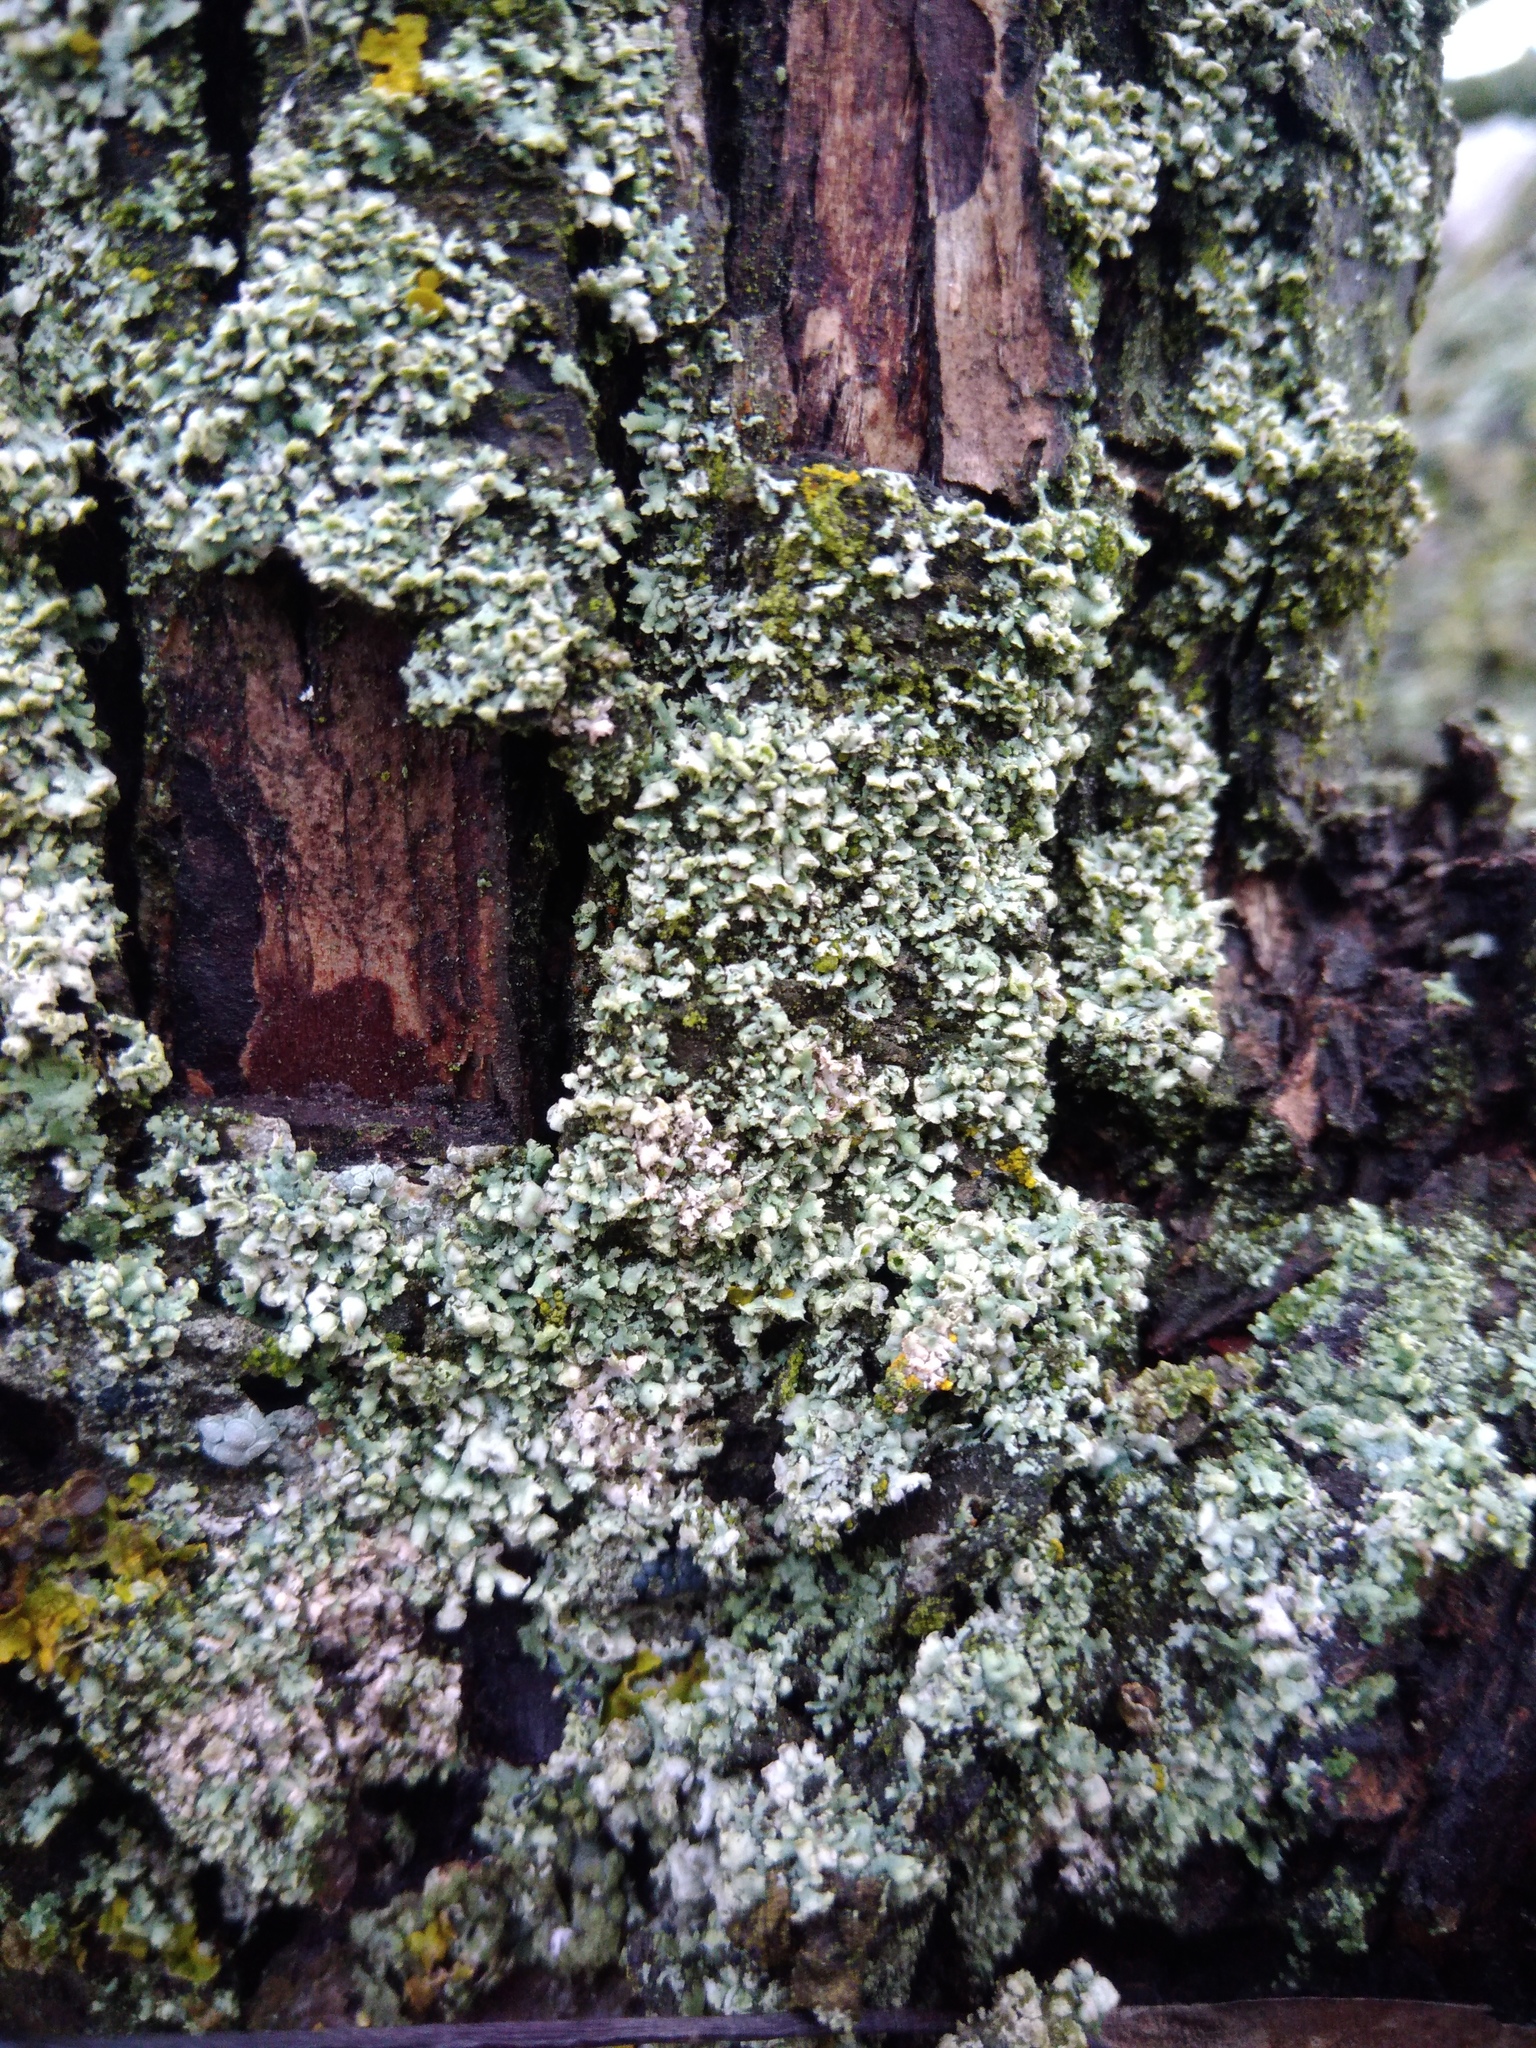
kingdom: Fungi
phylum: Ascomycota
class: Lecanoromycetes
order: Caliciales
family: Physciaceae
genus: Physcia
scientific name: Physcia adscendens
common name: Hooded rosette lichen
